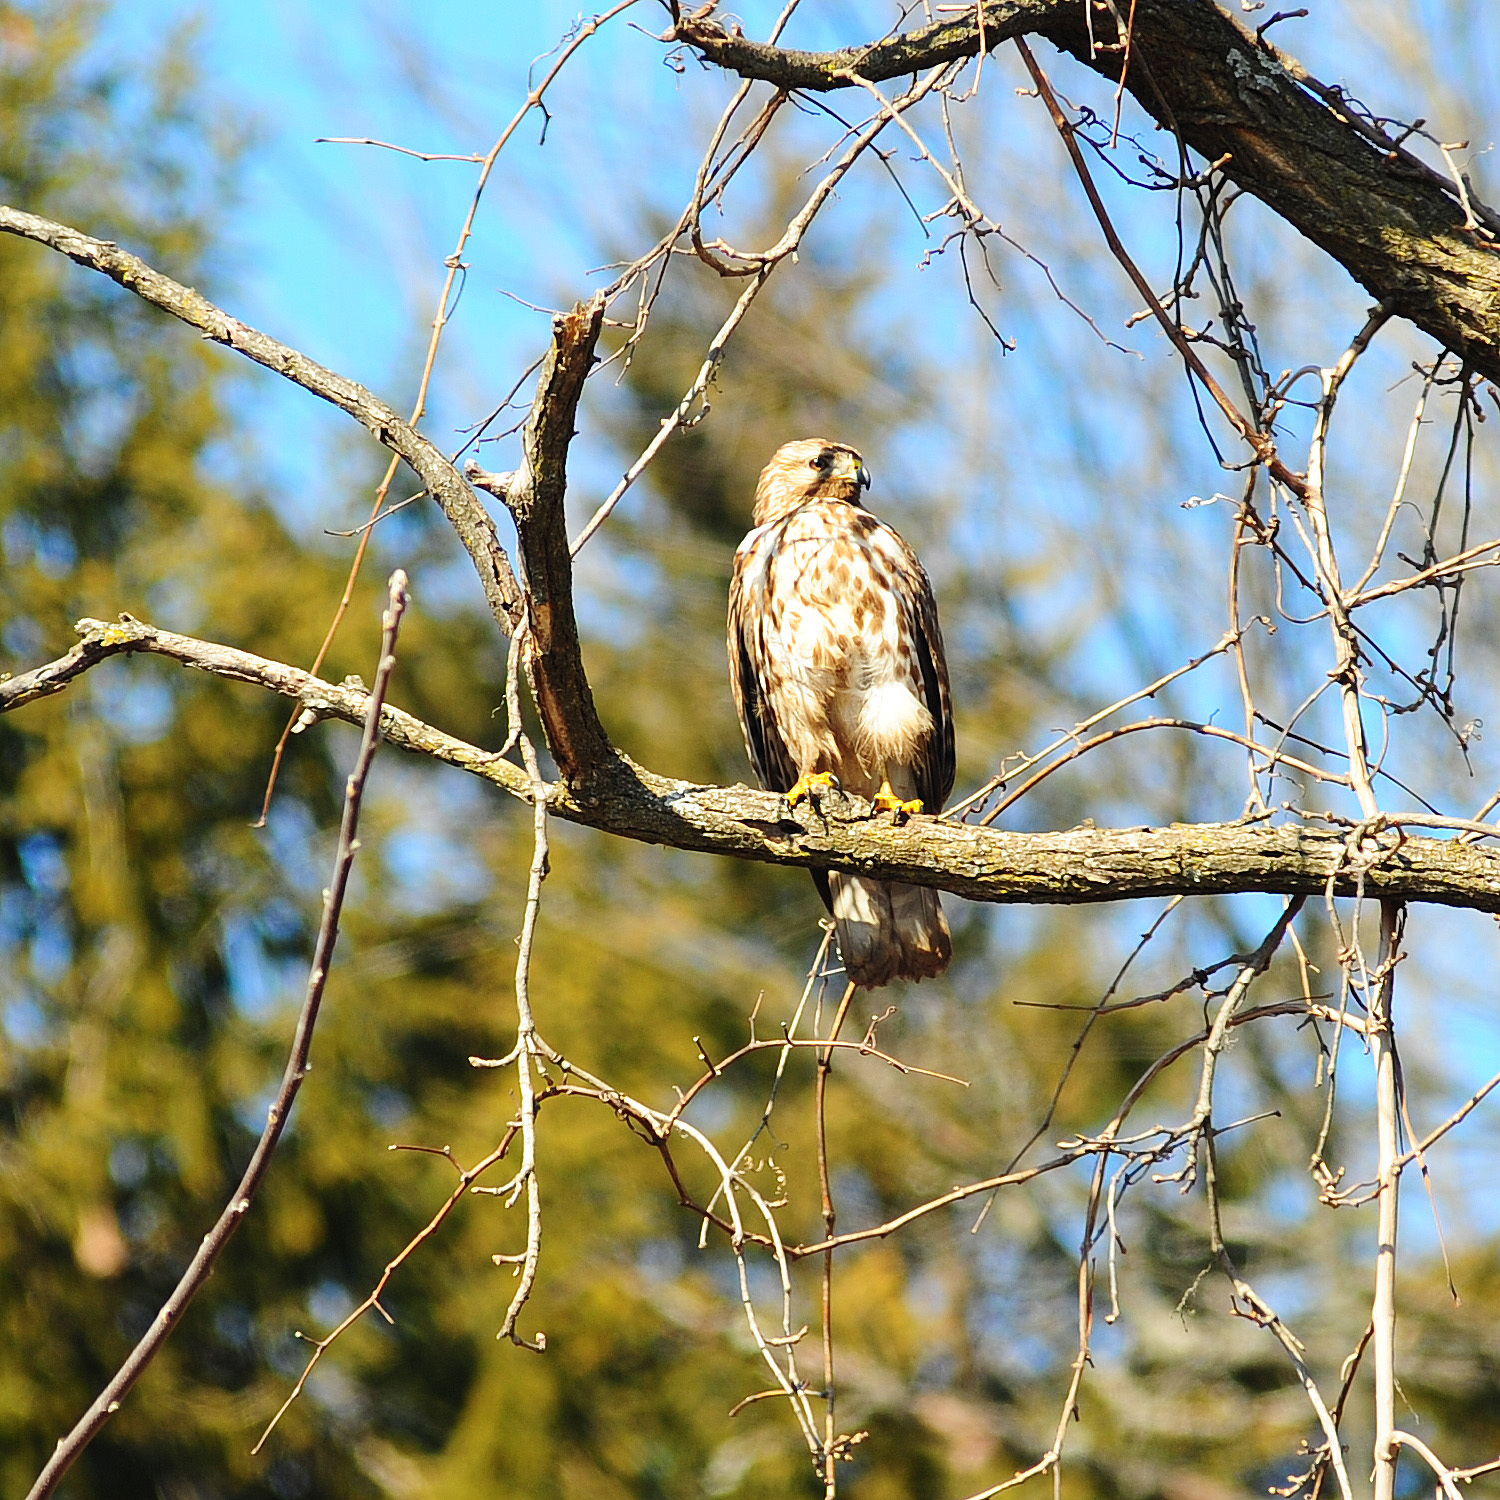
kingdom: Animalia
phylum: Chordata
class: Aves
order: Accipitriformes
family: Accipitridae
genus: Buteo
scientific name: Buteo lineatus
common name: Red-shouldered hawk
